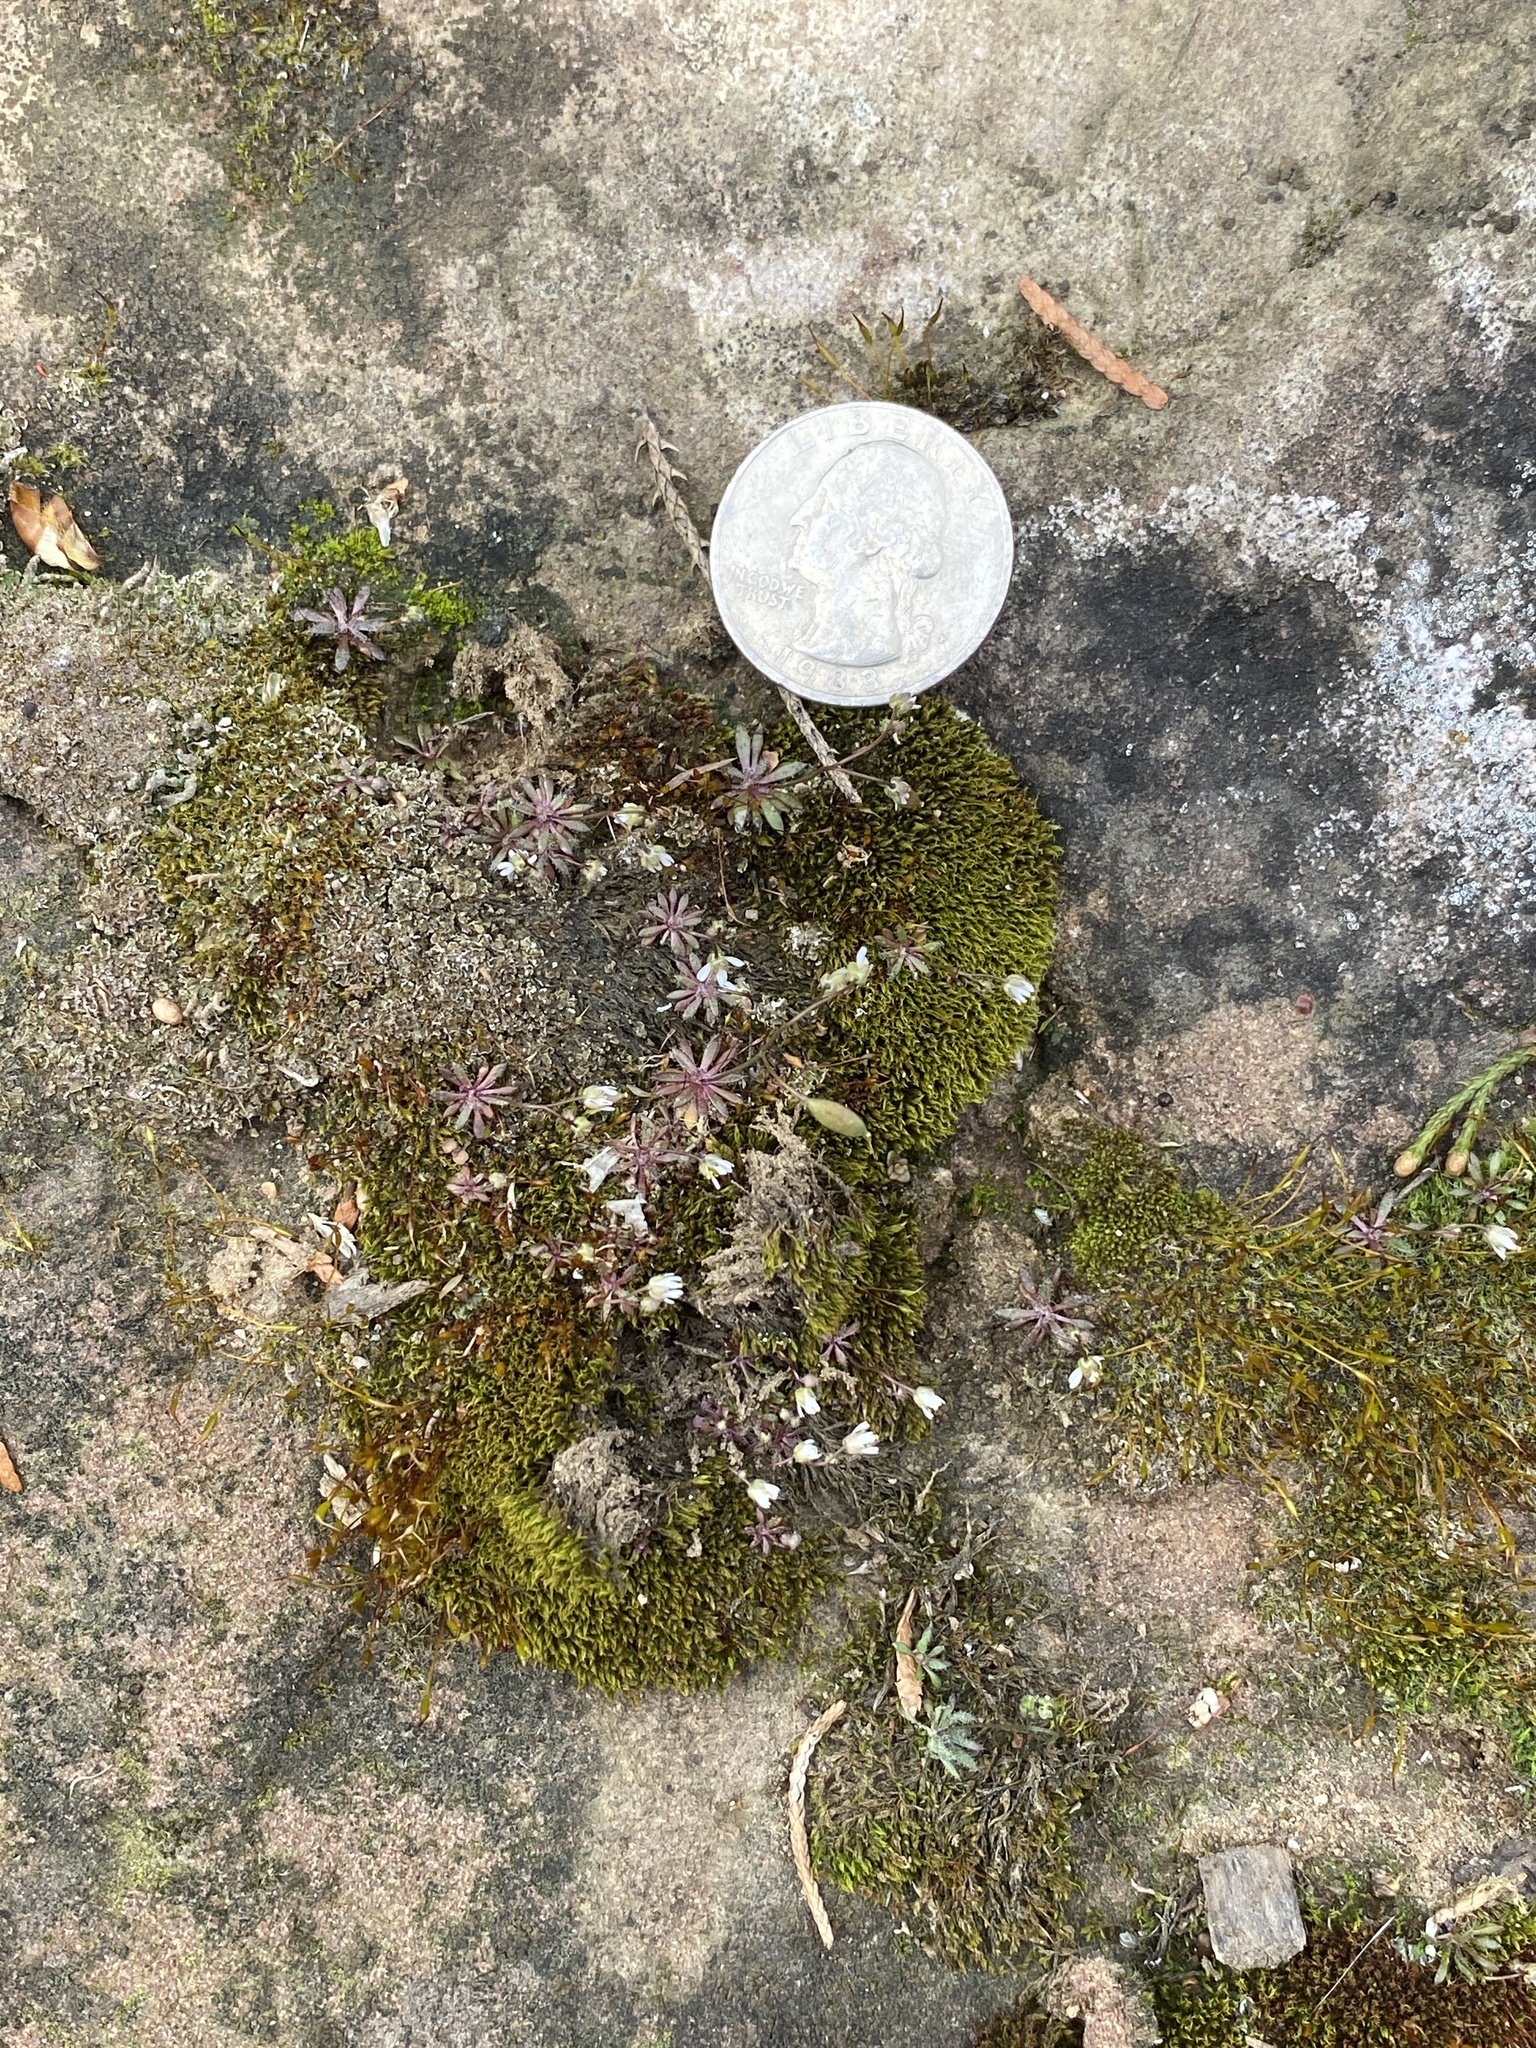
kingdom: Plantae
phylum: Tracheophyta
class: Magnoliopsida
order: Brassicales
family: Brassicaceae
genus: Draba
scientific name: Draba verna
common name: Spring draba
